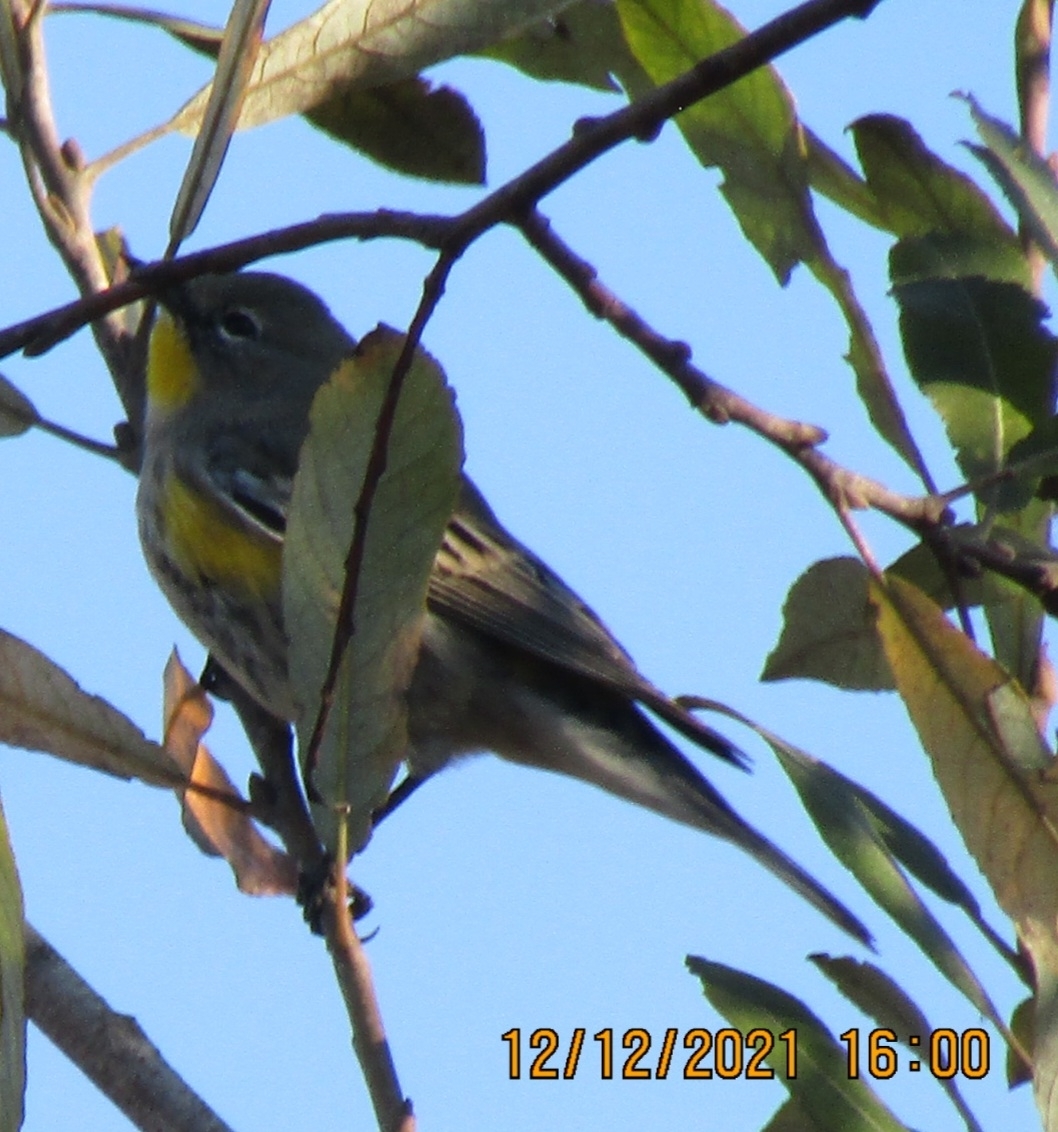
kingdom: Animalia
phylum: Chordata
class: Aves
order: Passeriformes
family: Parulidae
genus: Setophaga
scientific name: Setophaga coronata
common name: Myrtle warbler
